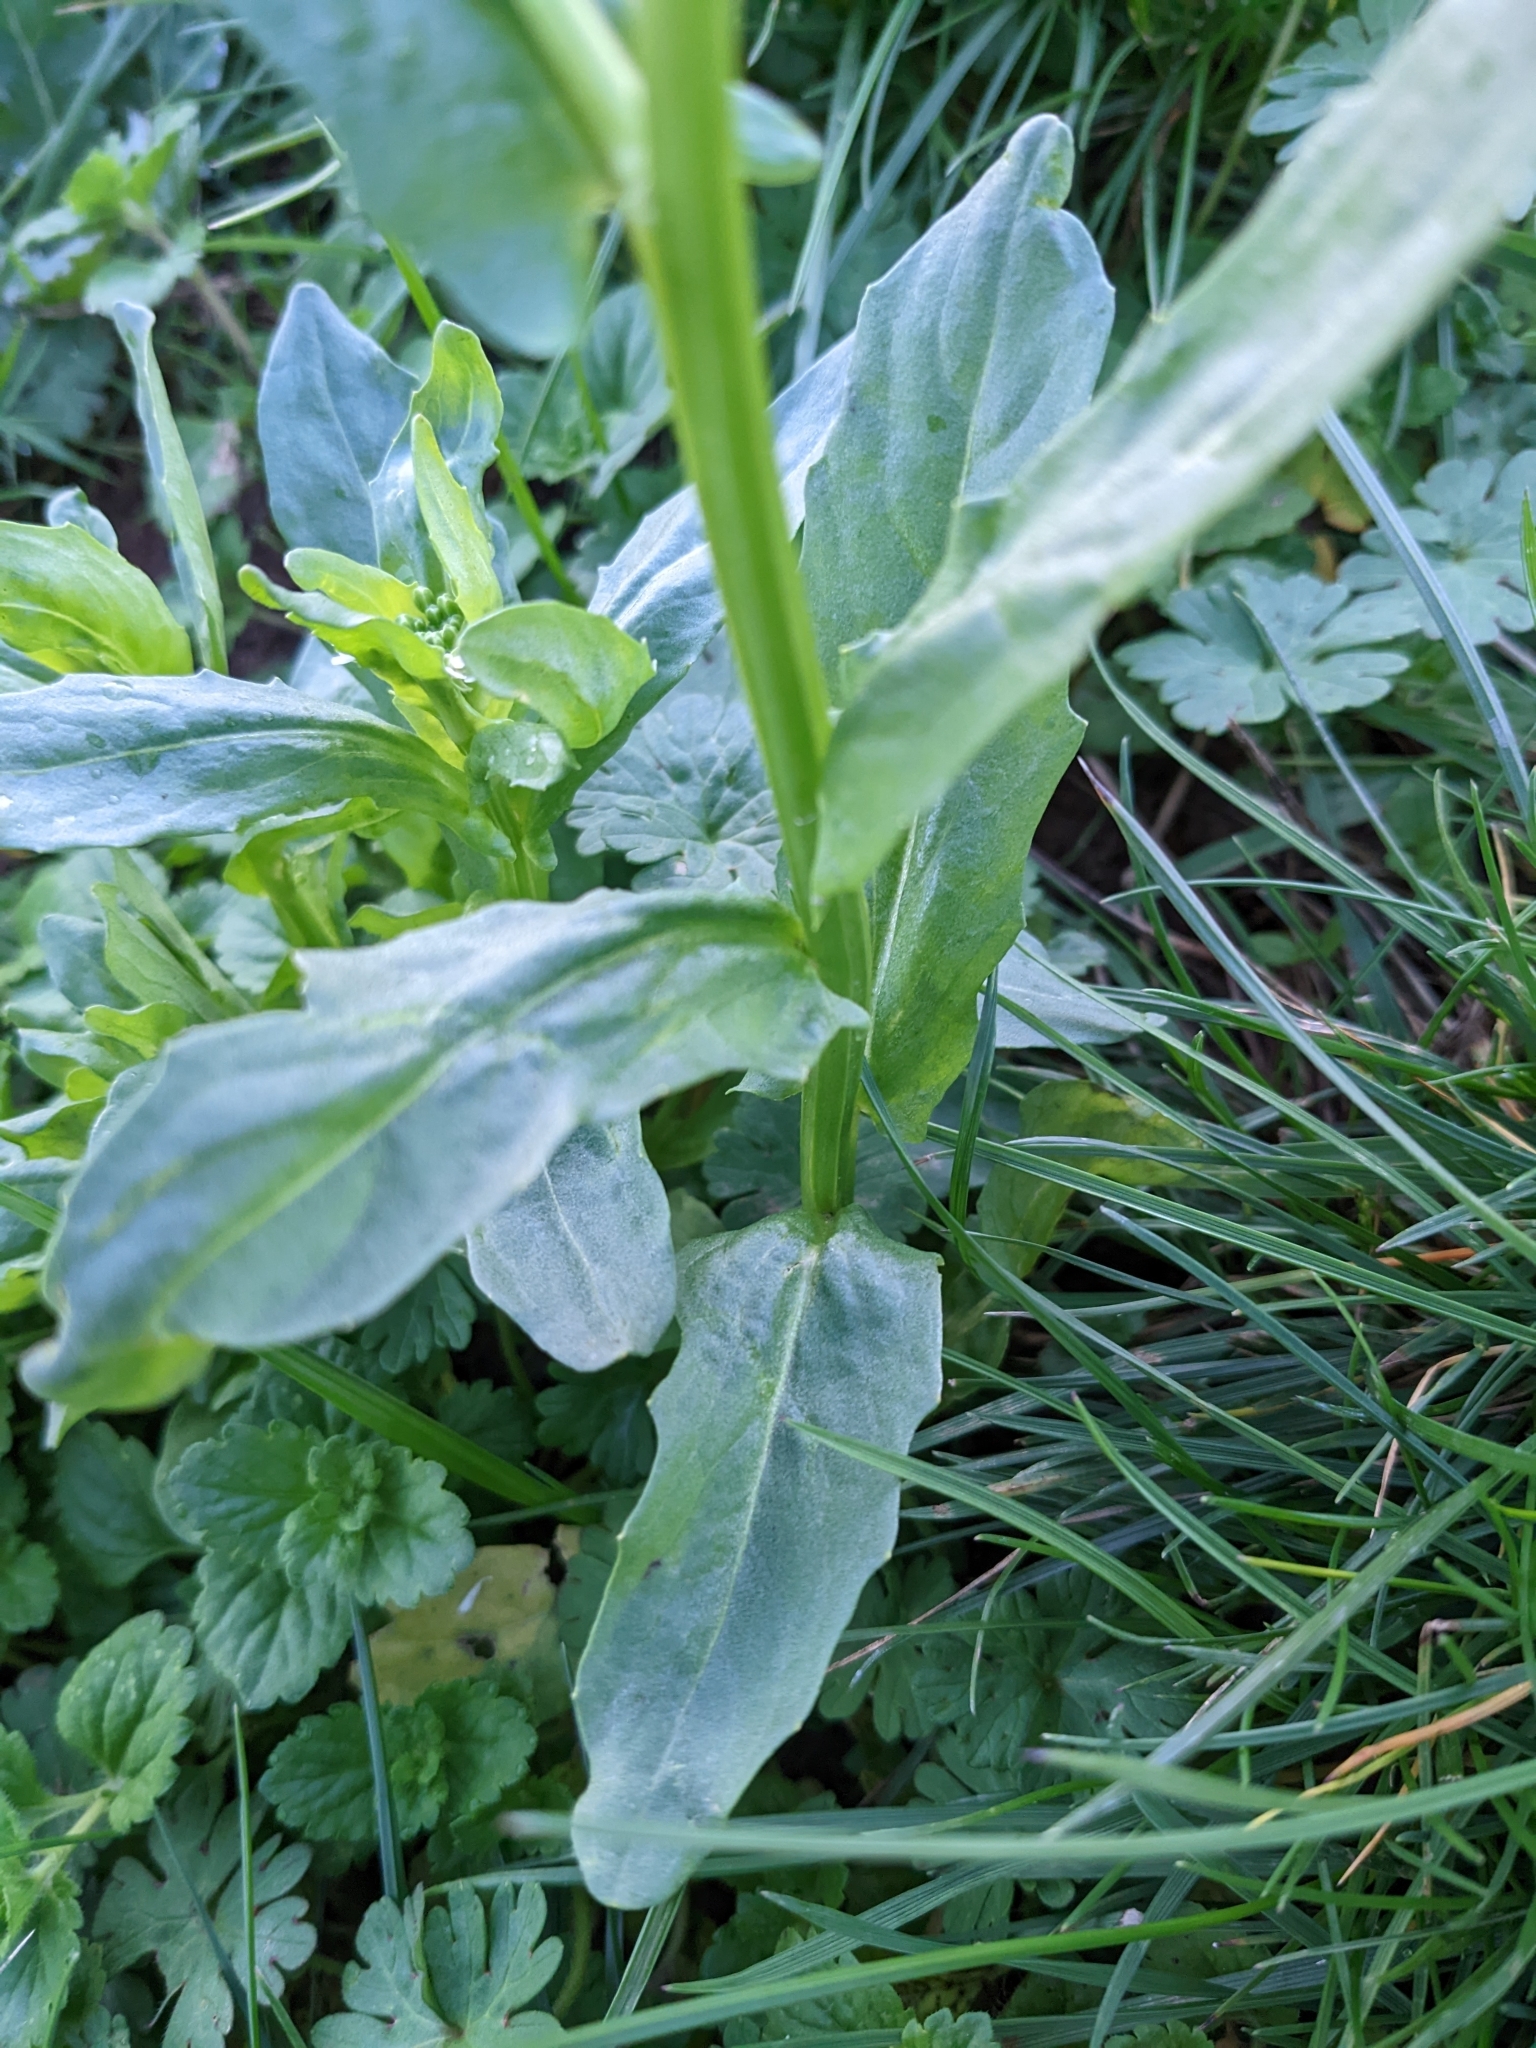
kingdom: Plantae
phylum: Tracheophyta
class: Magnoliopsida
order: Brassicales
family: Brassicaceae
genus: Thlaspi
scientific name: Thlaspi arvense
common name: Field pennycress
